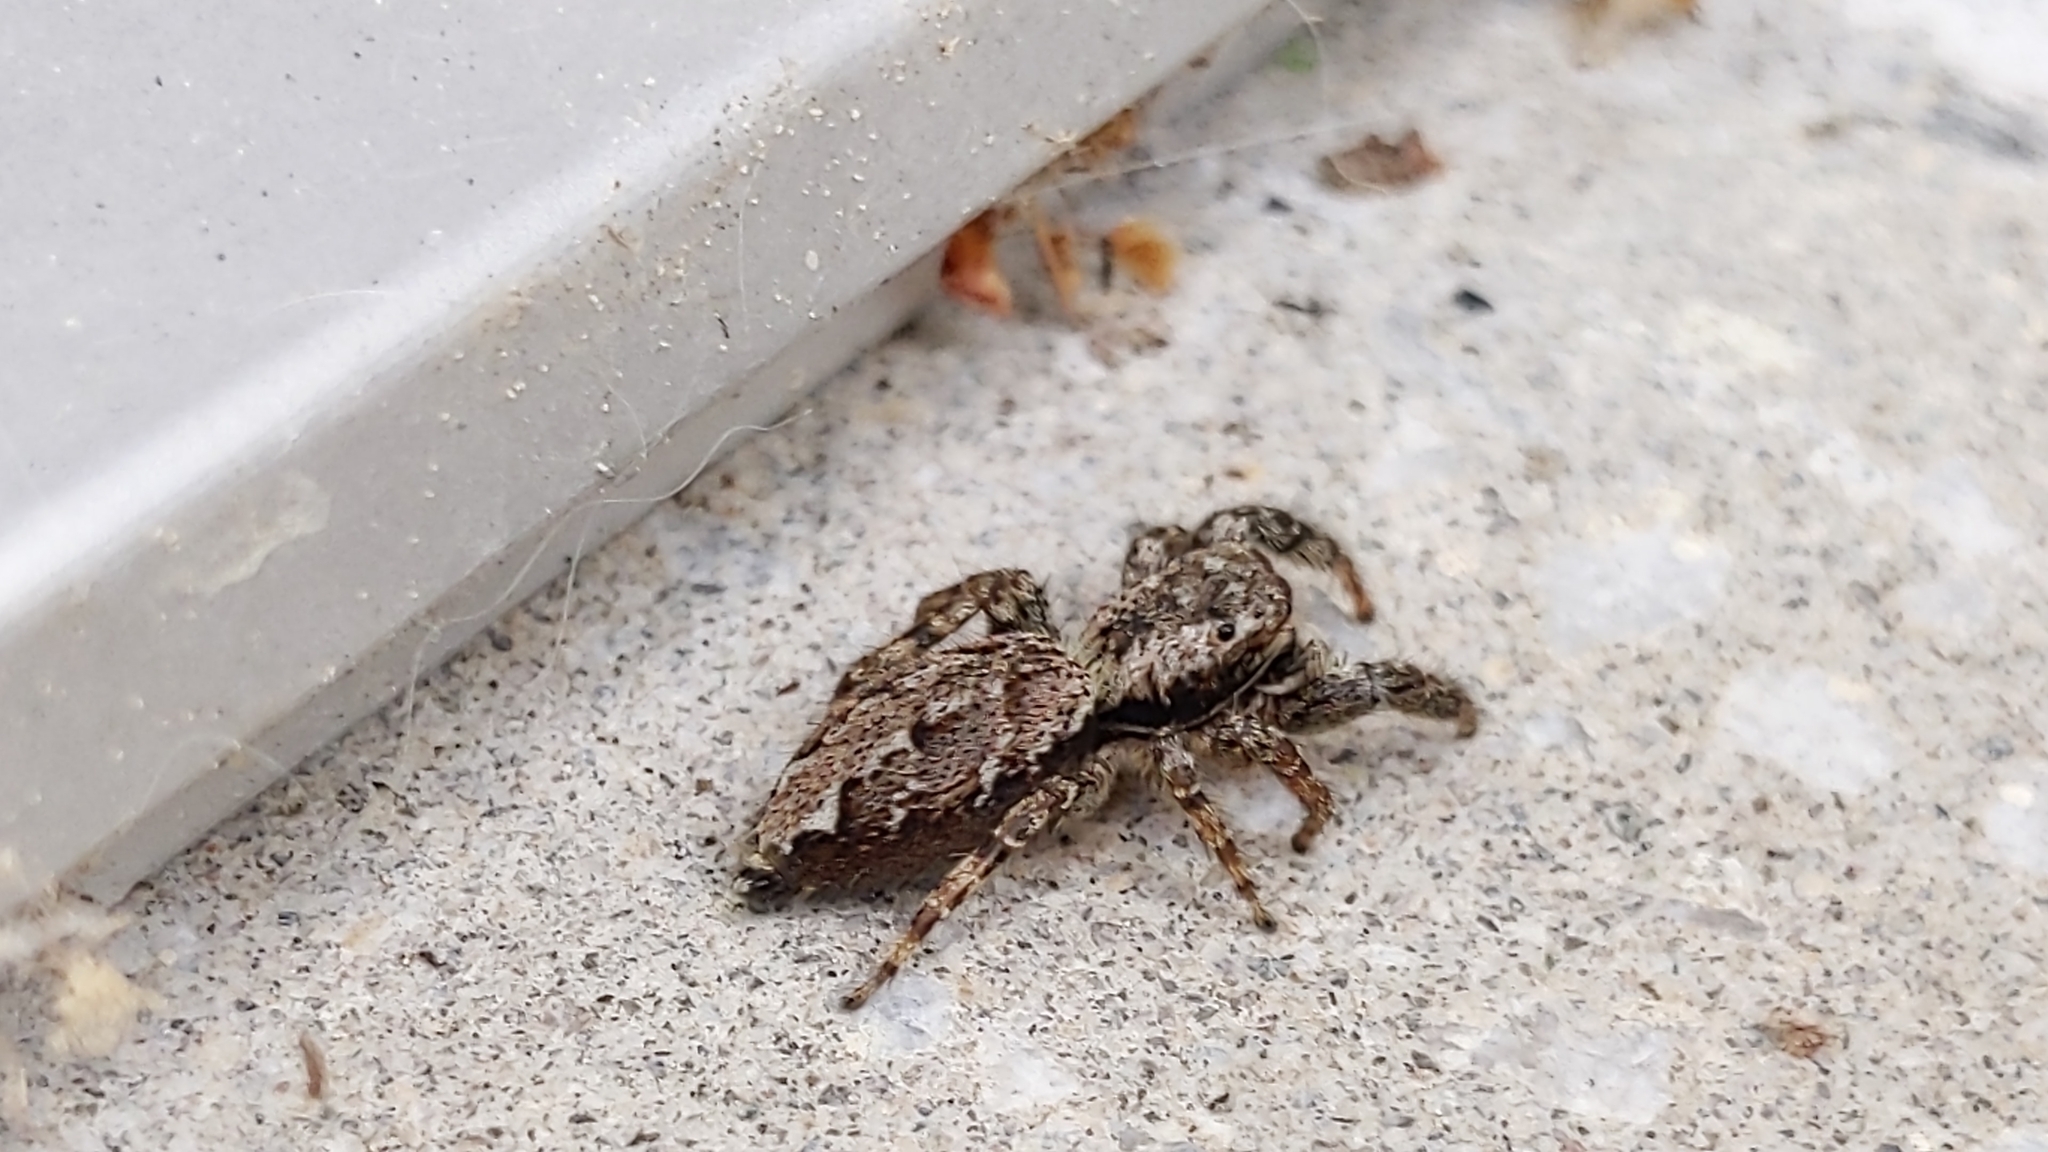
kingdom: Animalia
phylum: Arthropoda
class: Arachnida
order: Araneae
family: Salticidae
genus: Marpissa
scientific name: Marpissa muscosa
